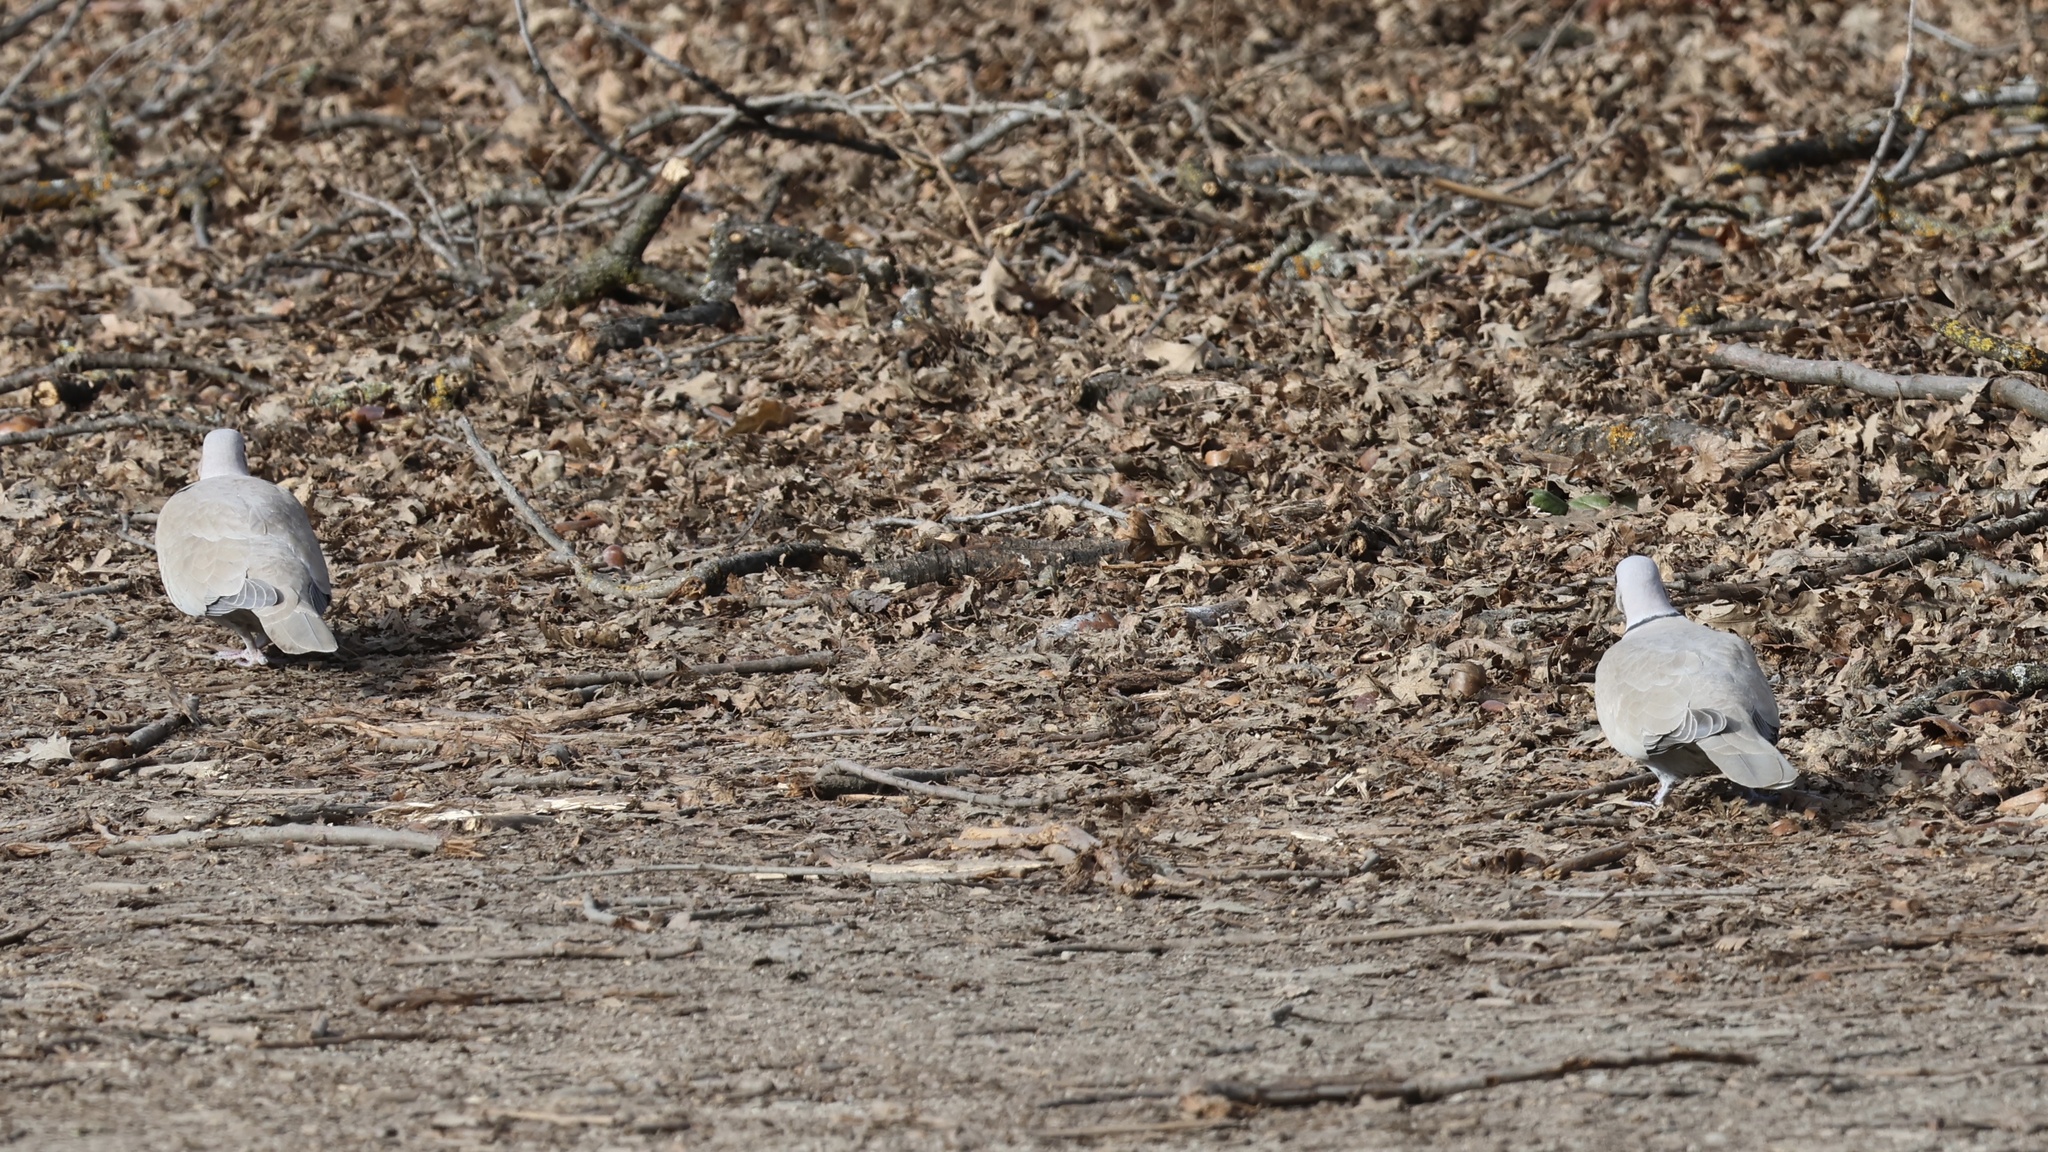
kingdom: Animalia
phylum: Chordata
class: Aves
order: Columbiformes
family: Columbidae
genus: Streptopelia
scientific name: Streptopelia decaocto
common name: Eurasian collared dove
